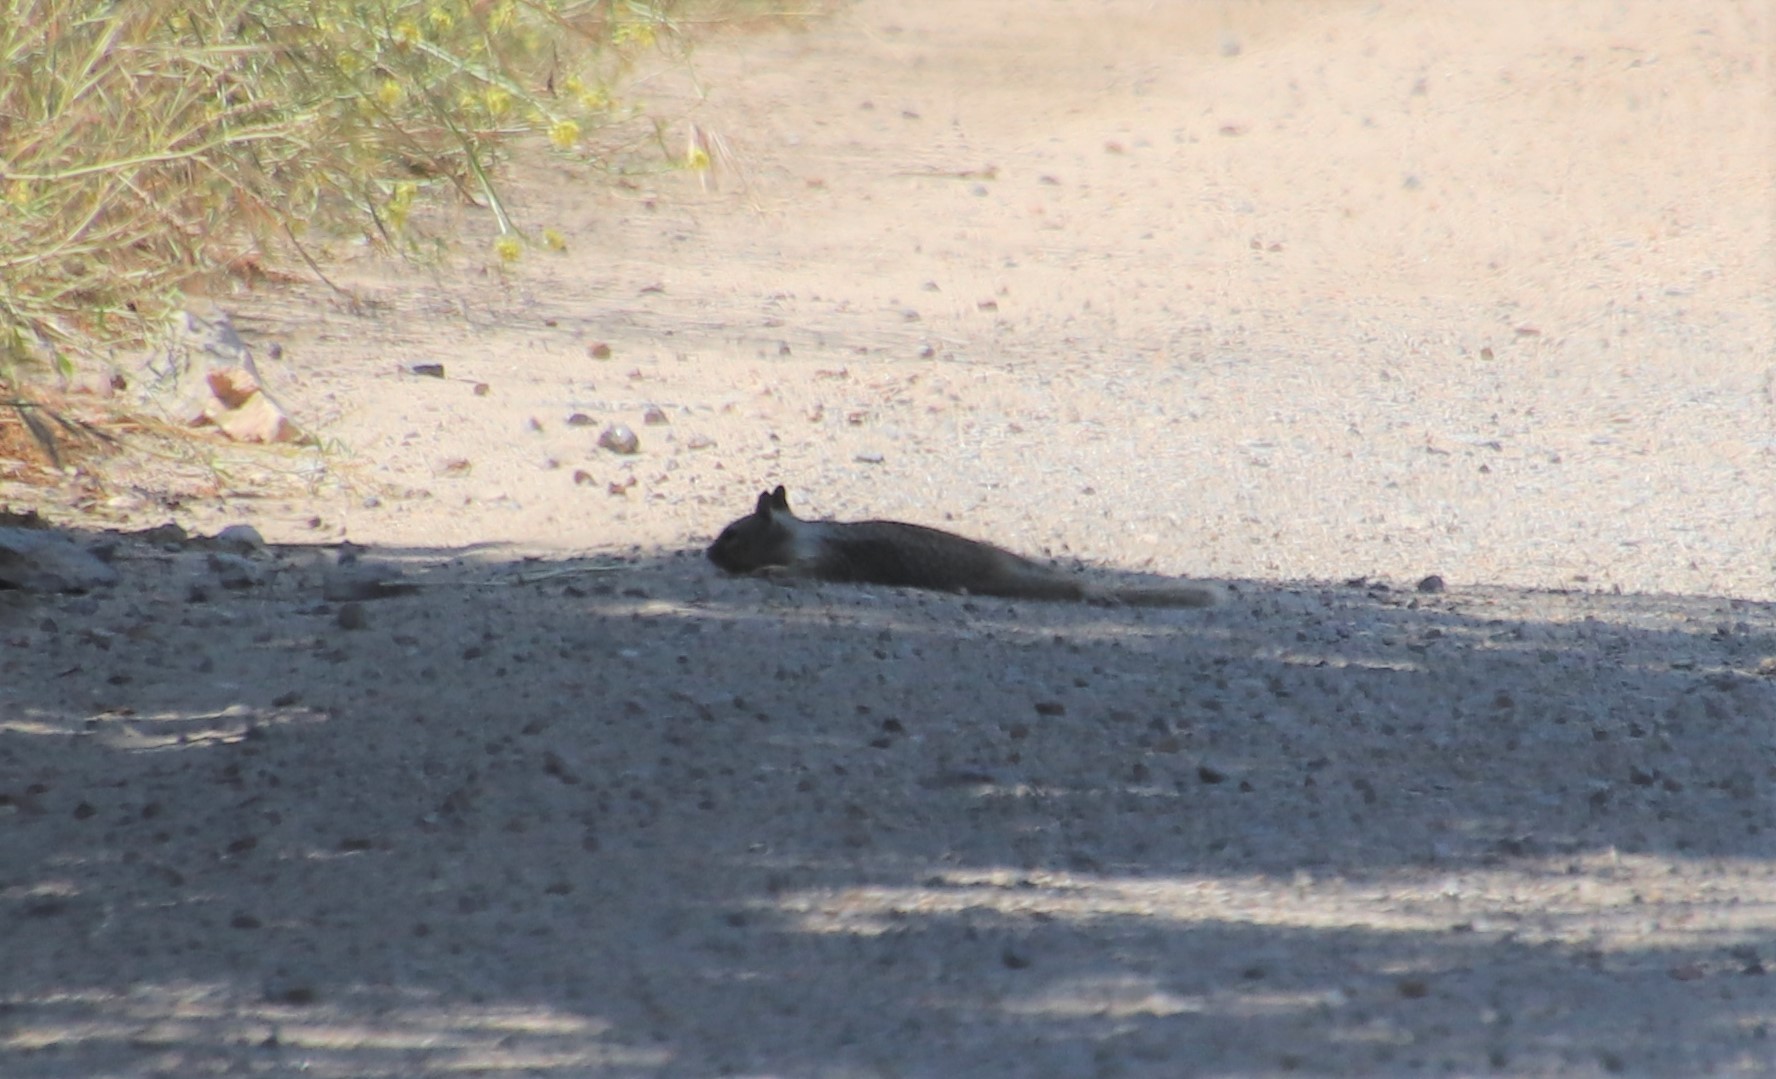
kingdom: Animalia
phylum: Chordata
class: Mammalia
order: Rodentia
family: Sciuridae
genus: Otospermophilus
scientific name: Otospermophilus beecheyi
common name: California ground squirrel
